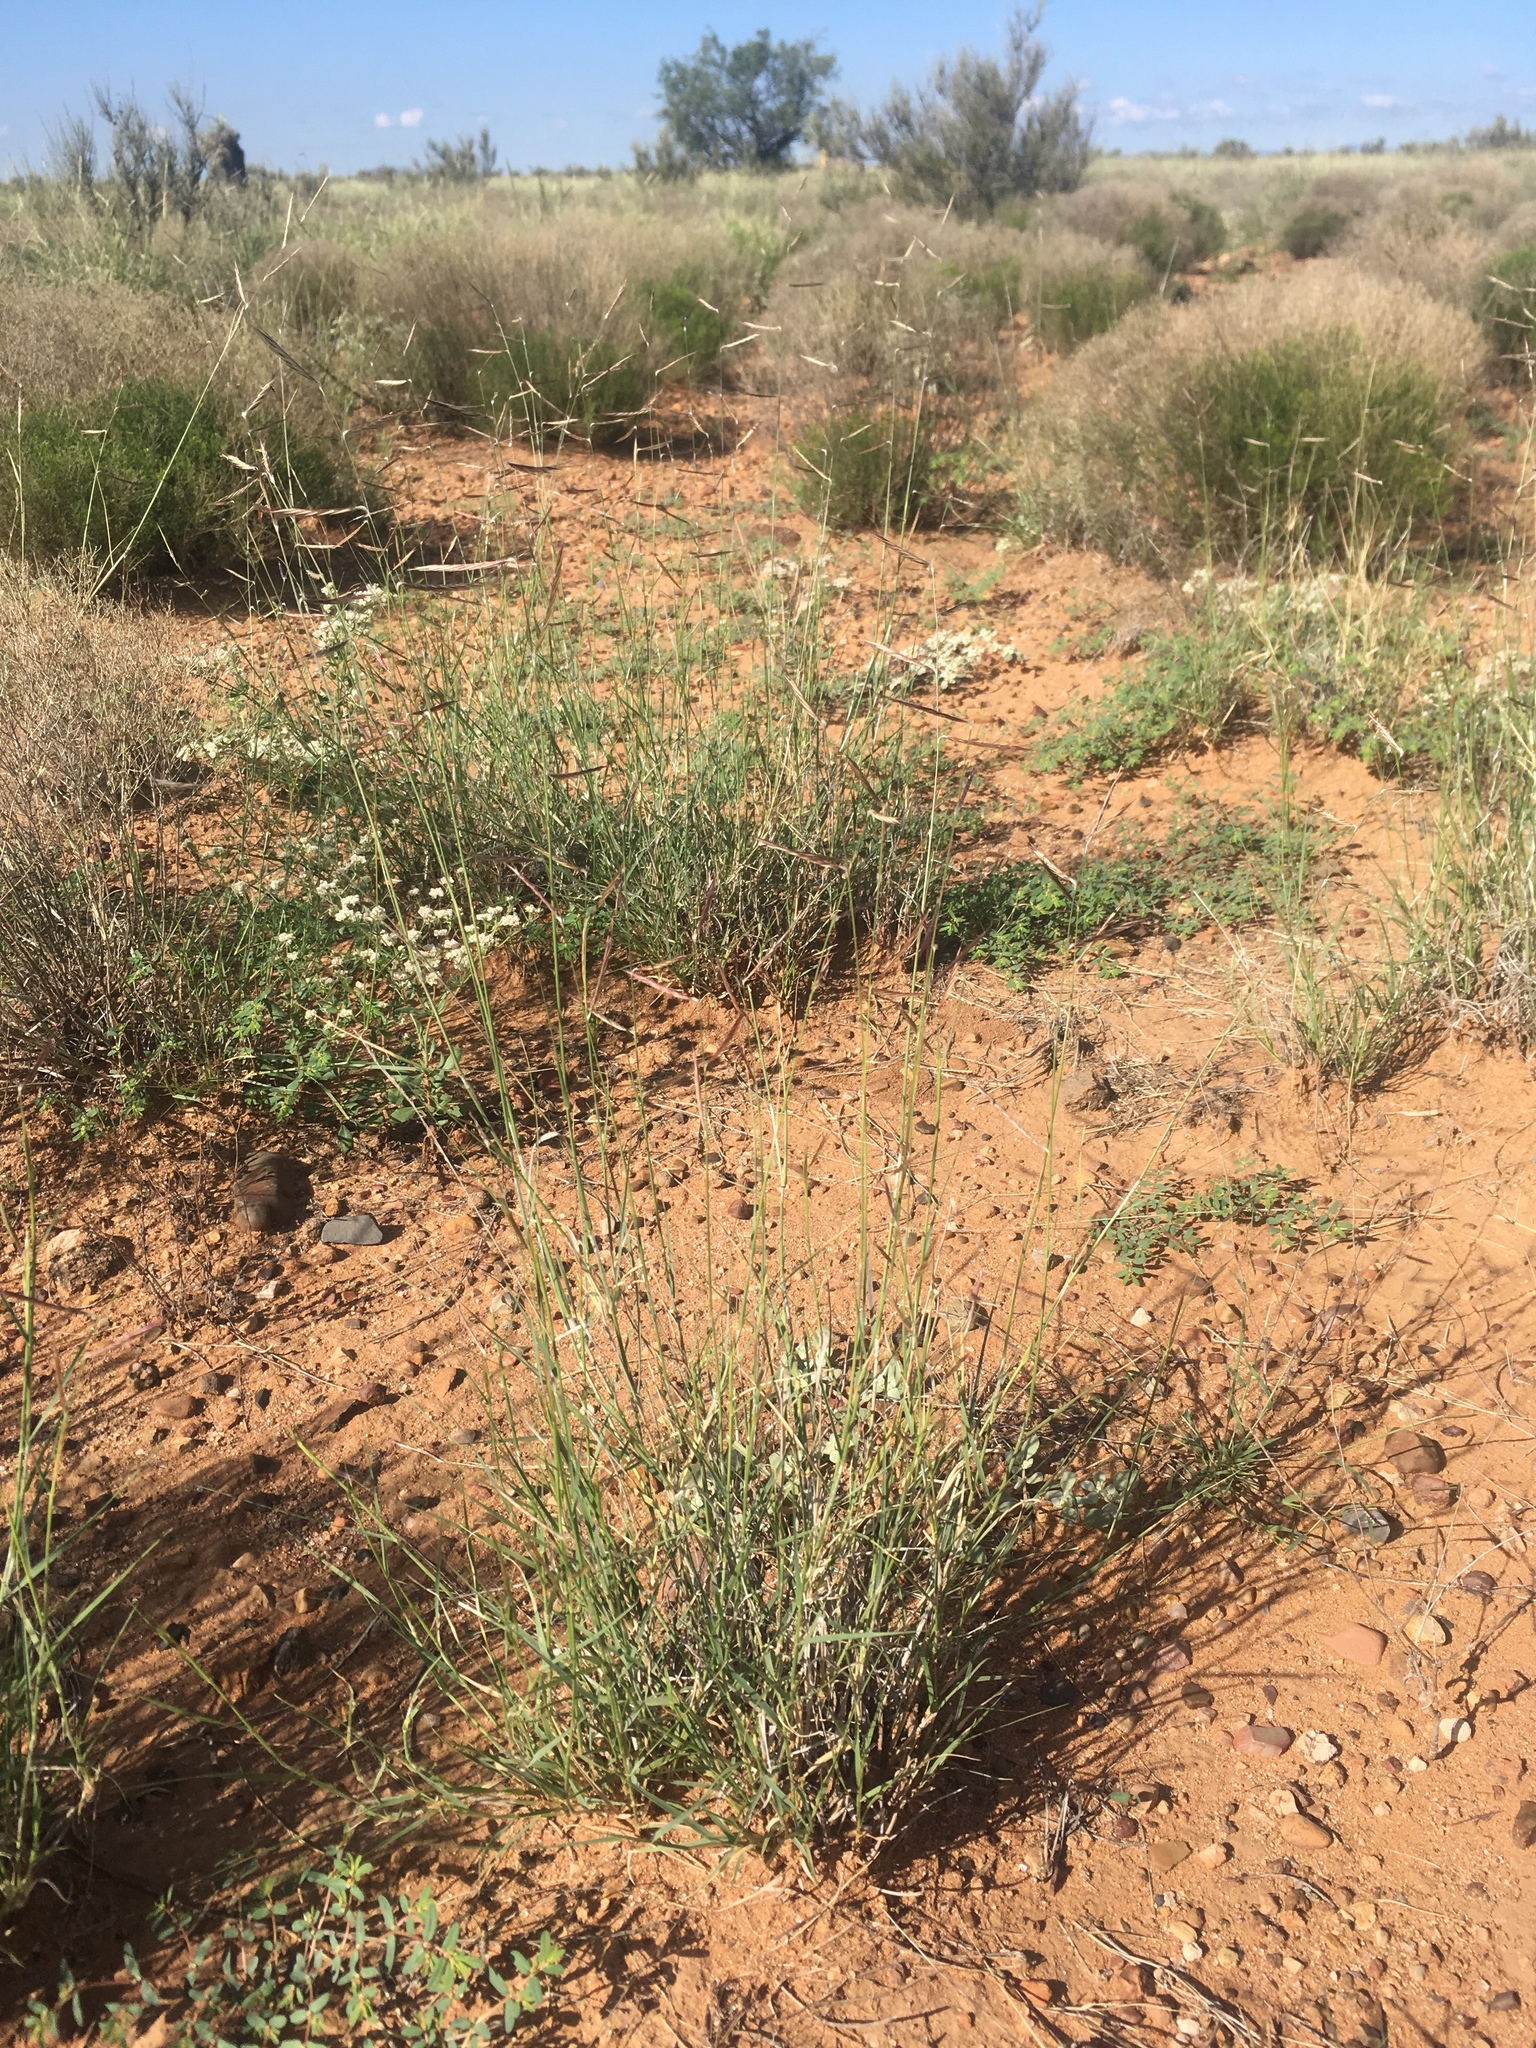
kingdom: Plantae
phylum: Tracheophyta
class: Liliopsida
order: Poales
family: Poaceae
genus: Bouteloua
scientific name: Bouteloua eriopoda
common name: Woolly foot grama
